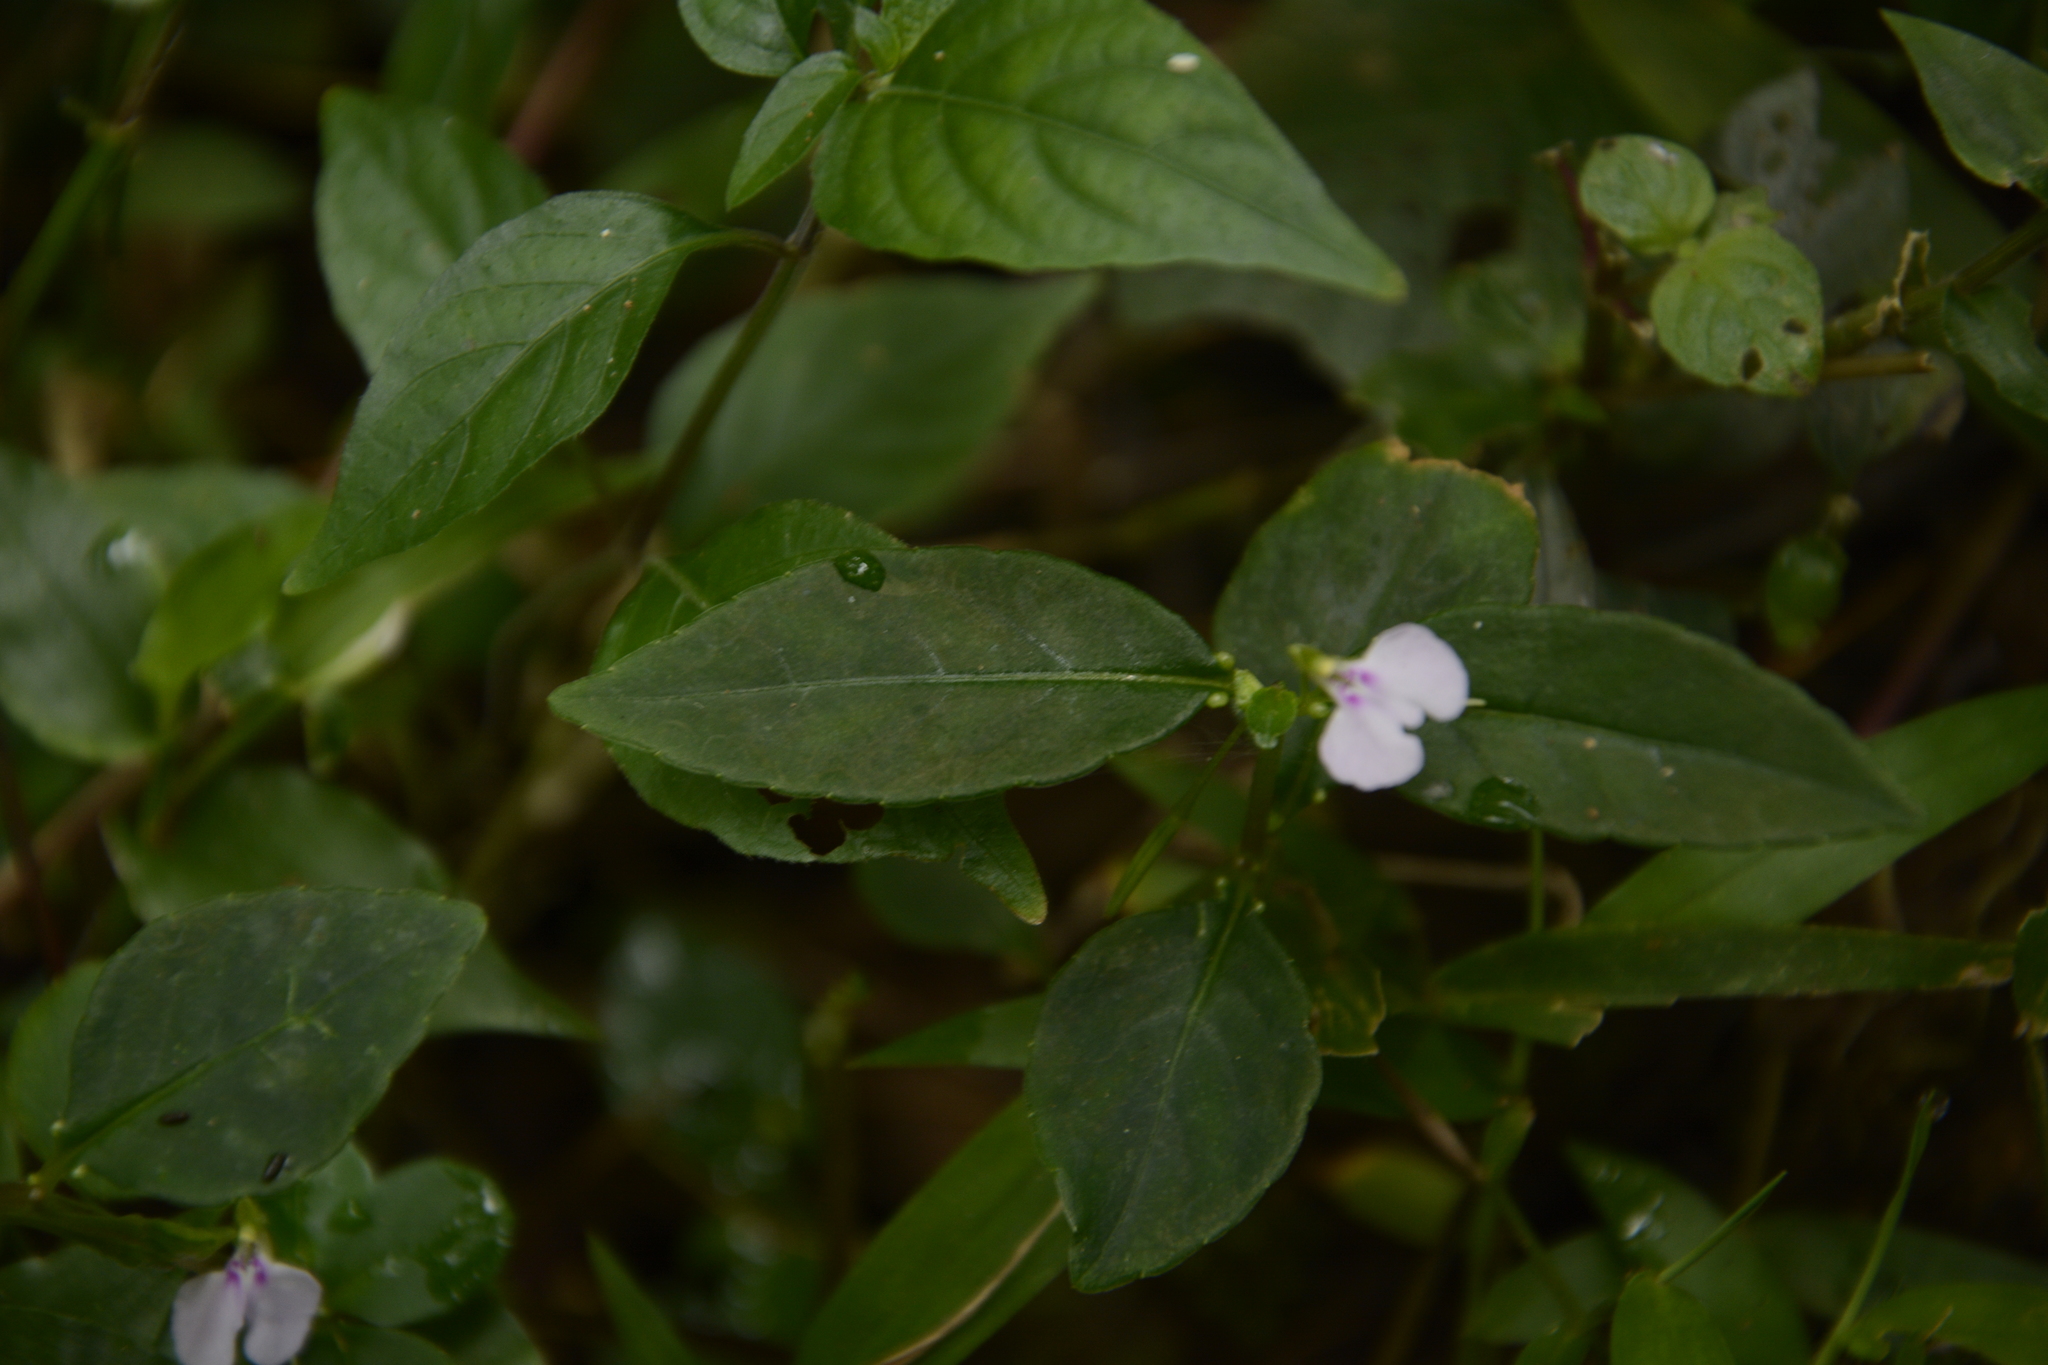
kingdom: Plantae
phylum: Tracheophyta
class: Magnoliopsida
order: Ericales
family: Balsaminaceae
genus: Impatiens
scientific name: Impatiens minor
